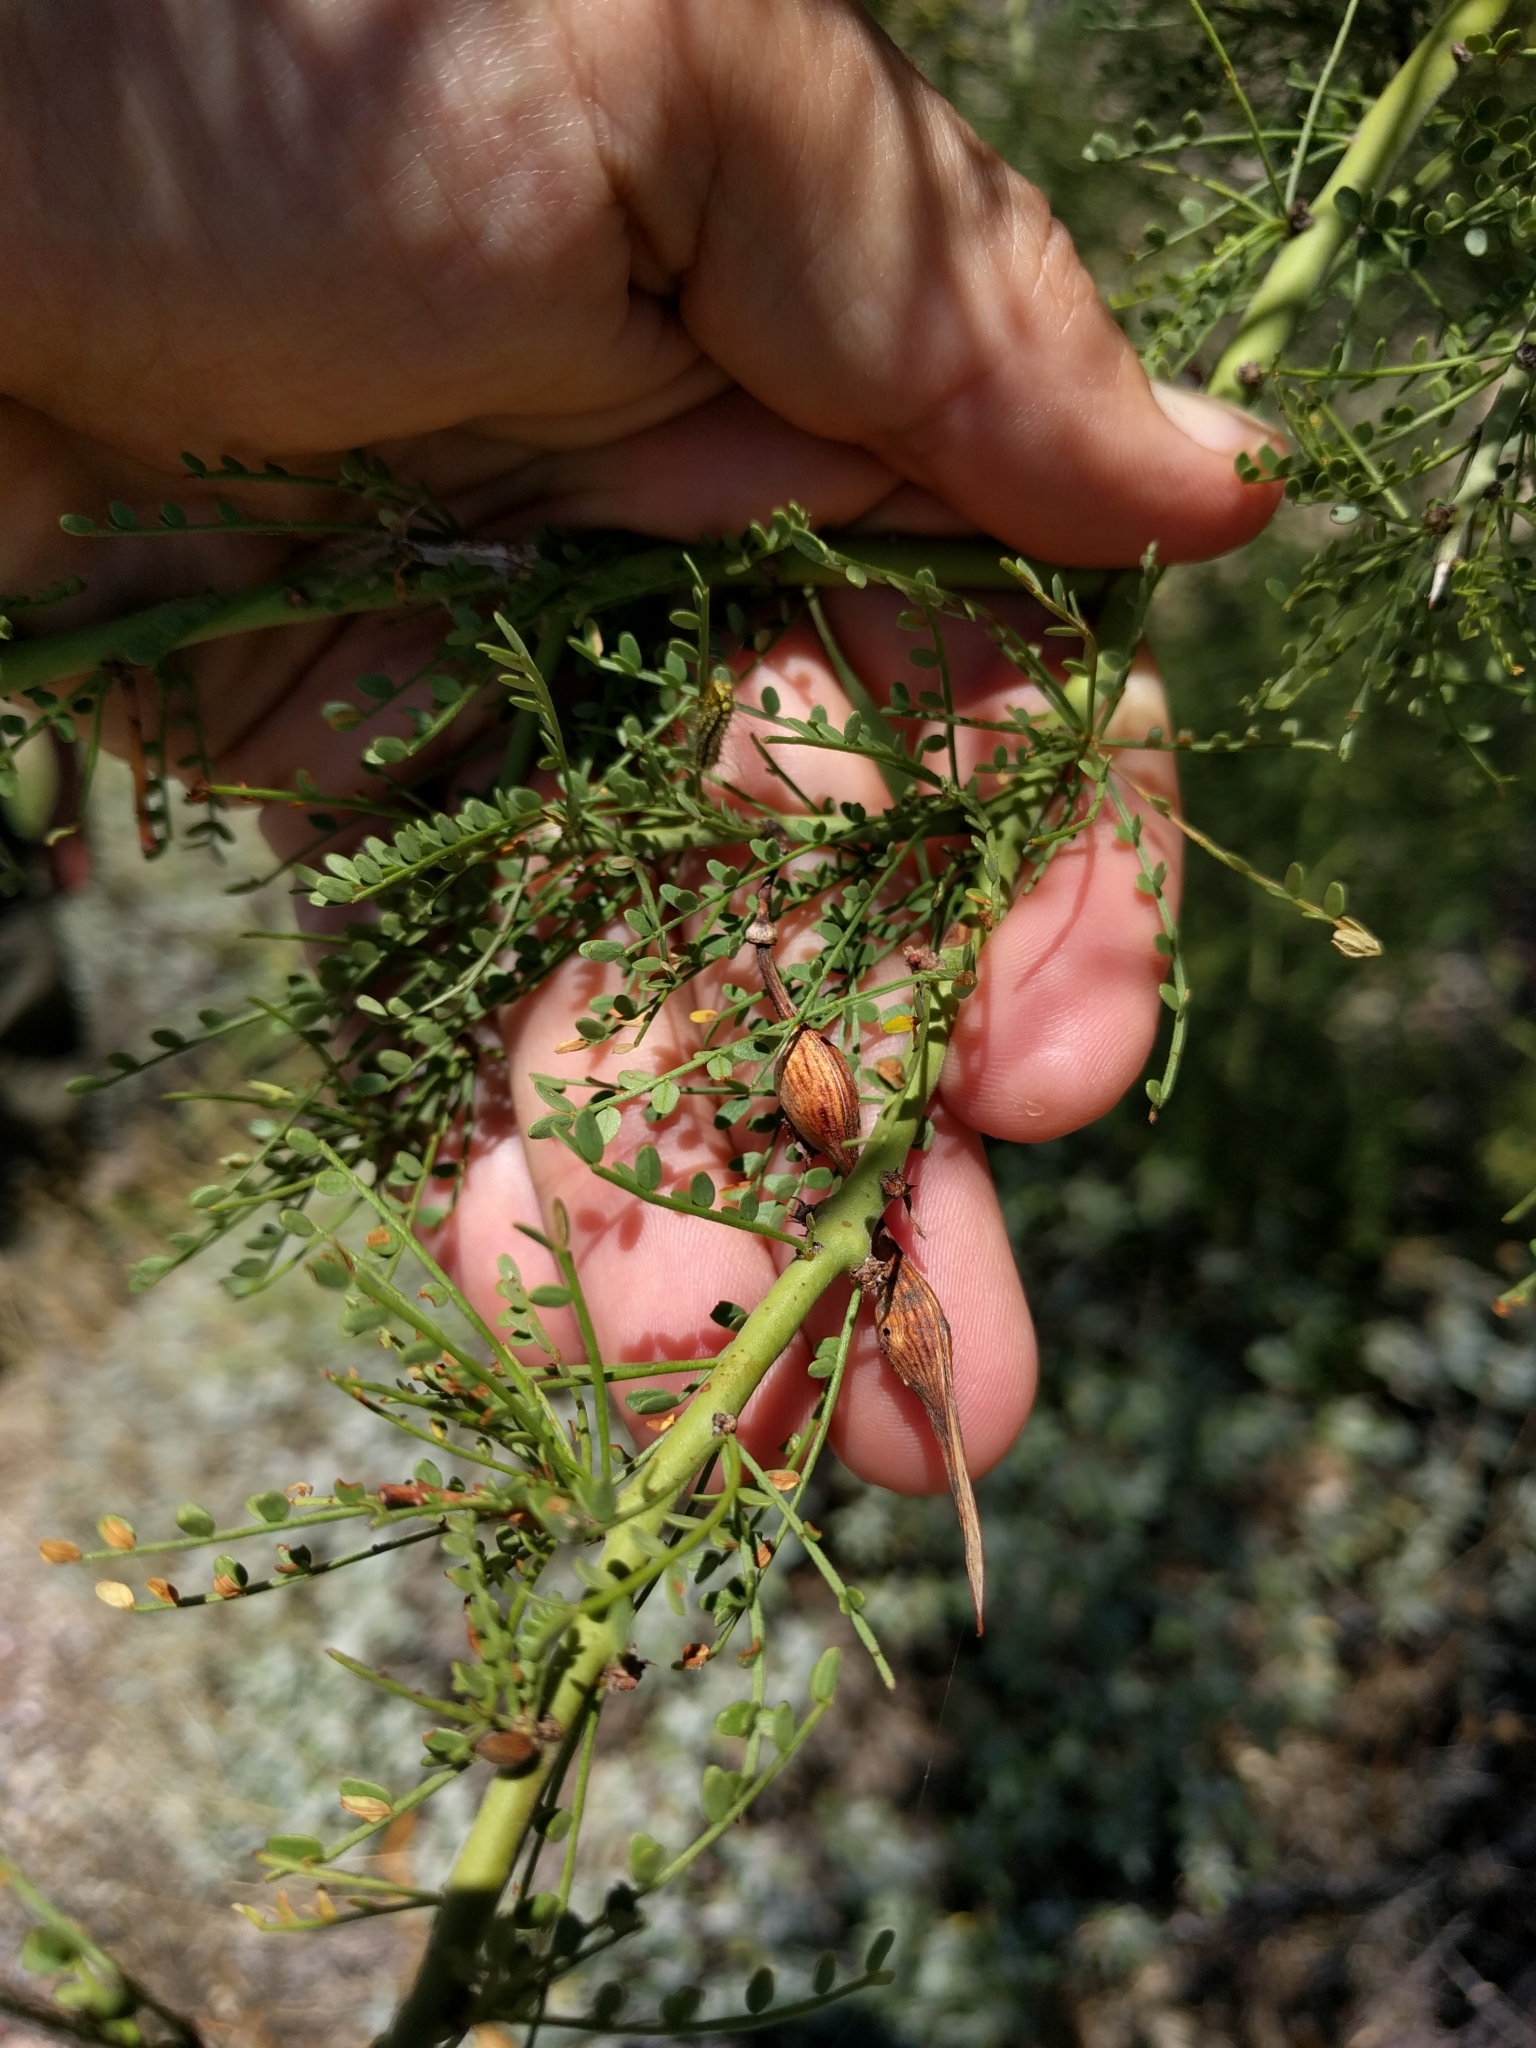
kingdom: Plantae
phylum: Tracheophyta
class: Magnoliopsida
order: Fabales
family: Fabaceae
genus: Parkinsonia
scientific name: Parkinsonia microphylla
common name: Yellow paloverde
